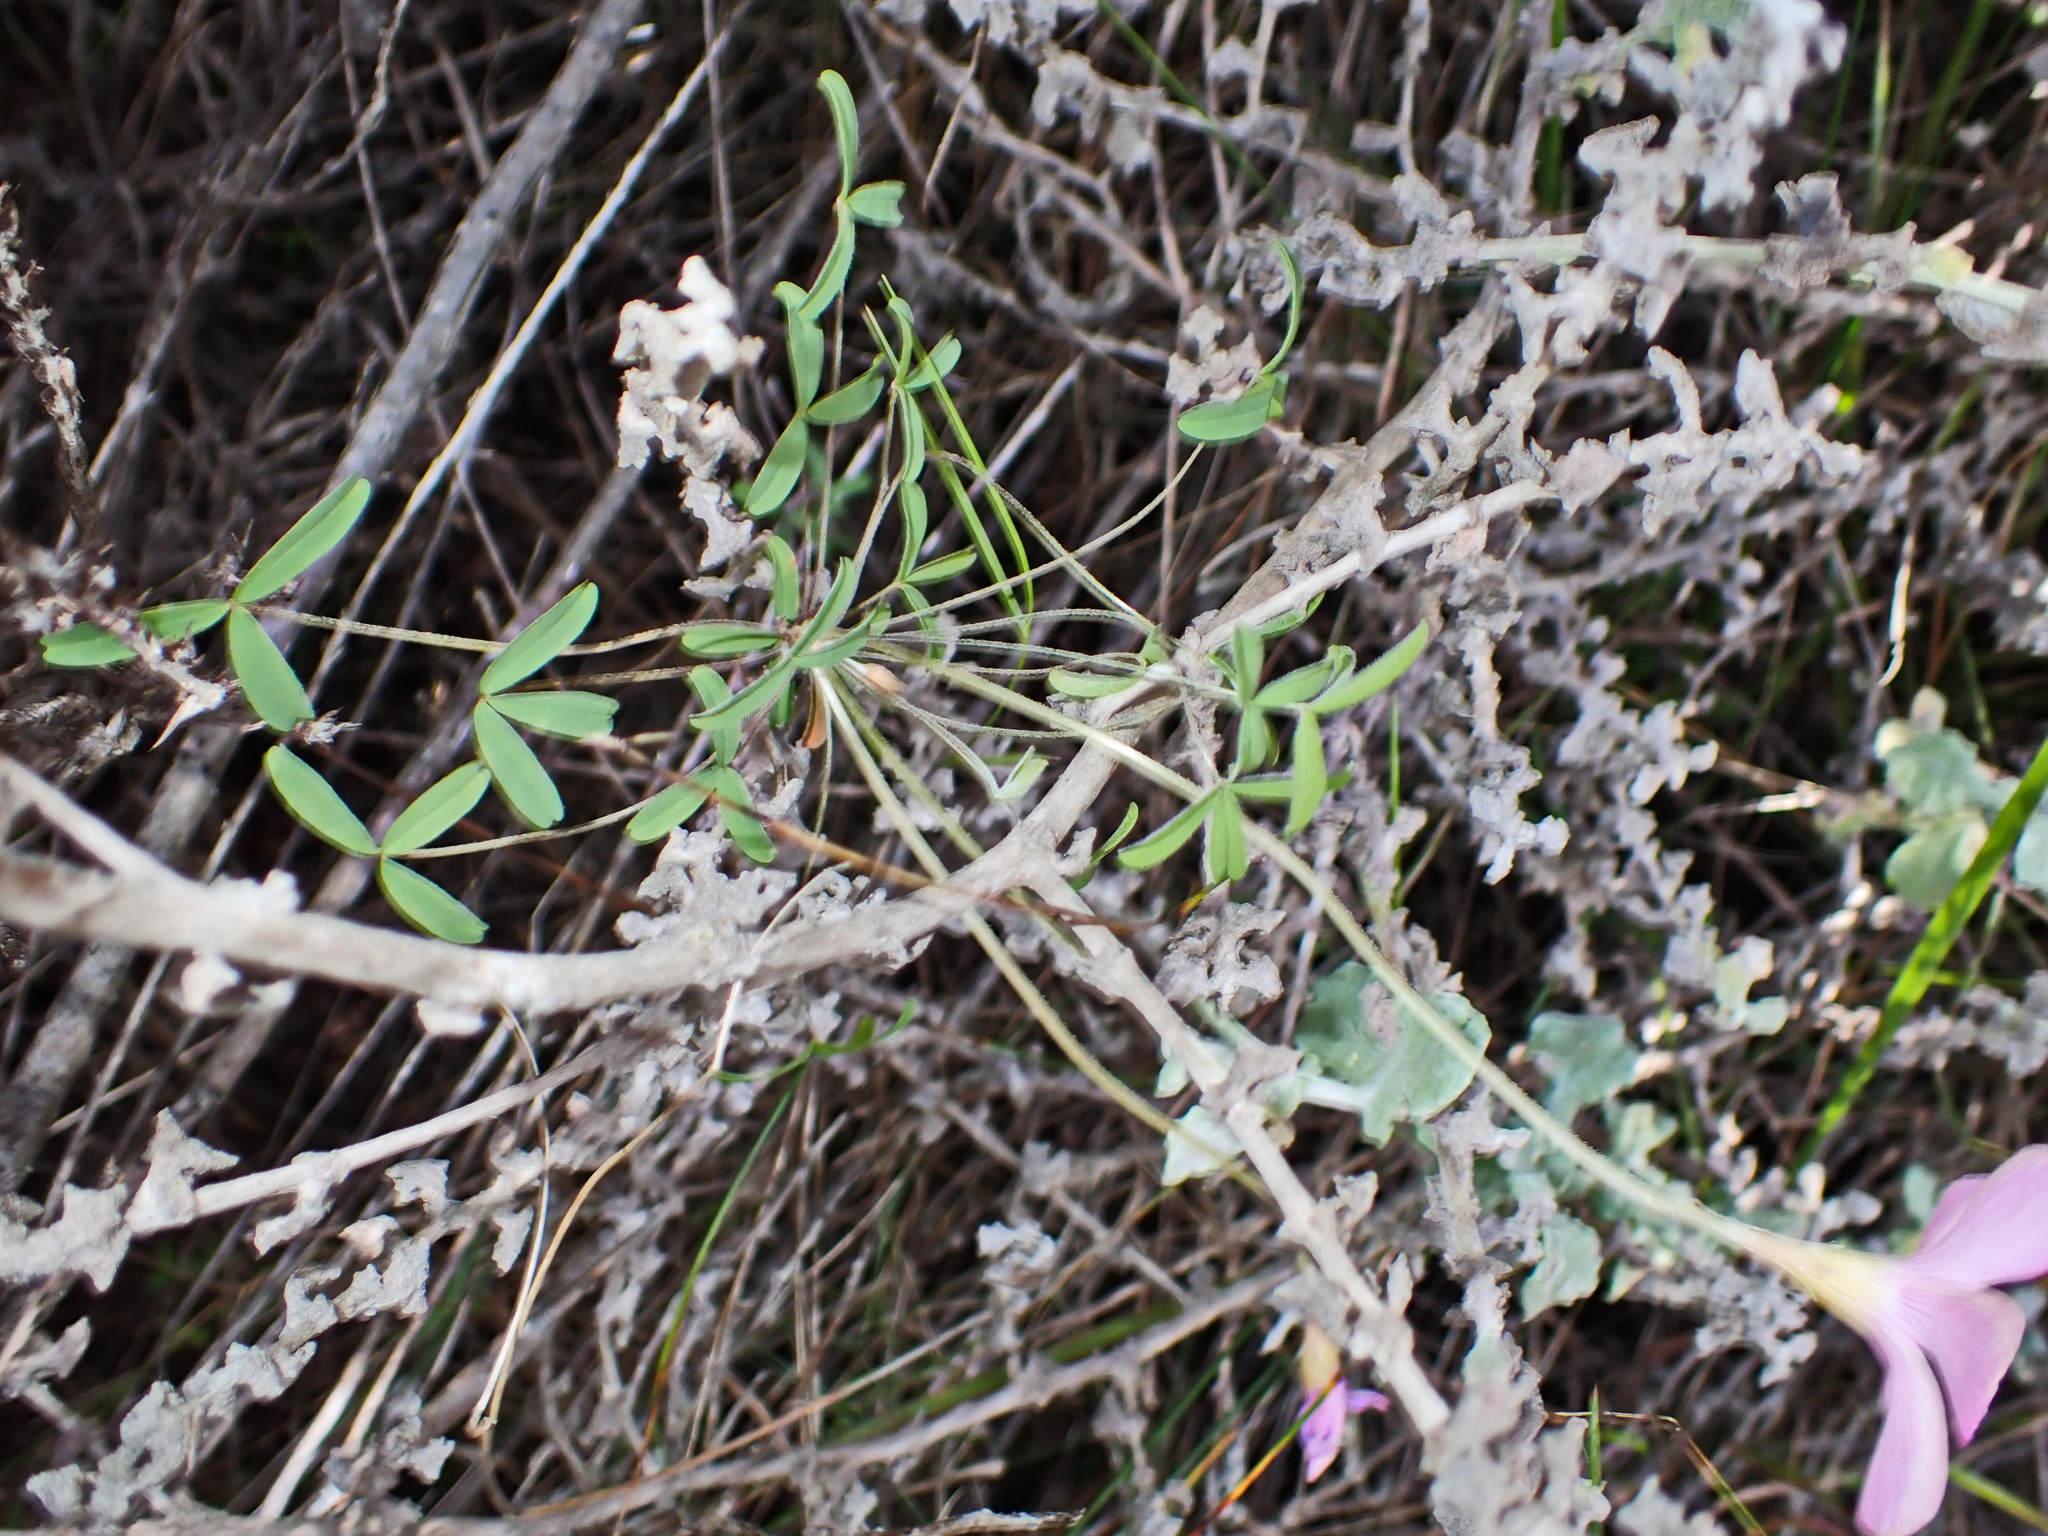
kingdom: Plantae
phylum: Tracheophyta
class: Magnoliopsida
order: Oxalidales
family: Oxalidaceae
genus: Oxalis
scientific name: Oxalis ciliaris
